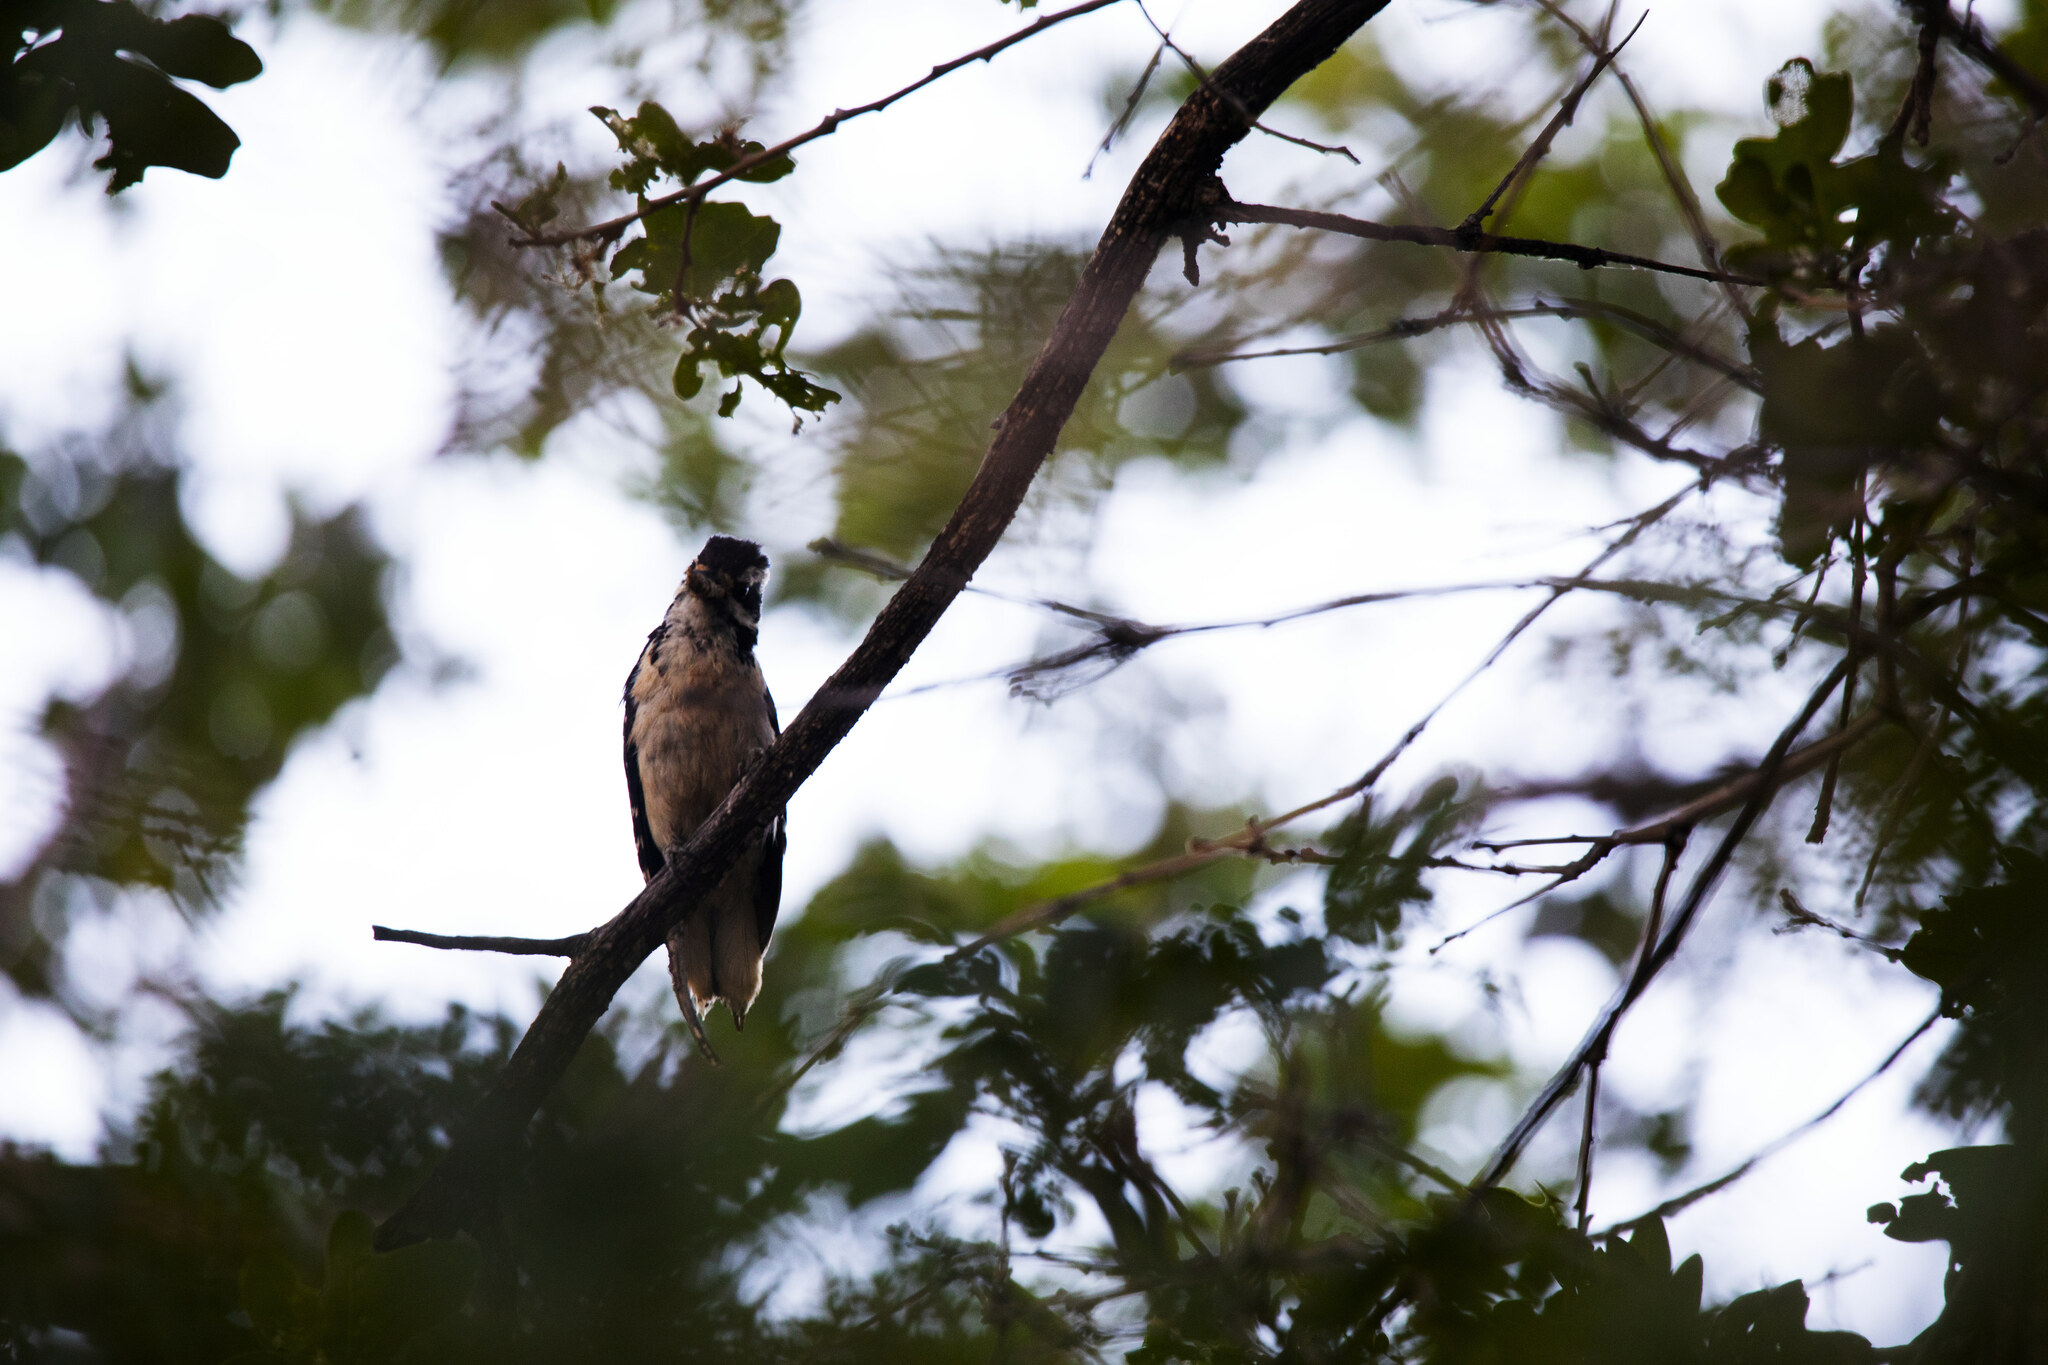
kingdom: Animalia
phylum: Chordata
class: Aves
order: Piciformes
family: Picidae
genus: Leuconotopicus
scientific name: Leuconotopicus villosus
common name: Hairy woodpecker
